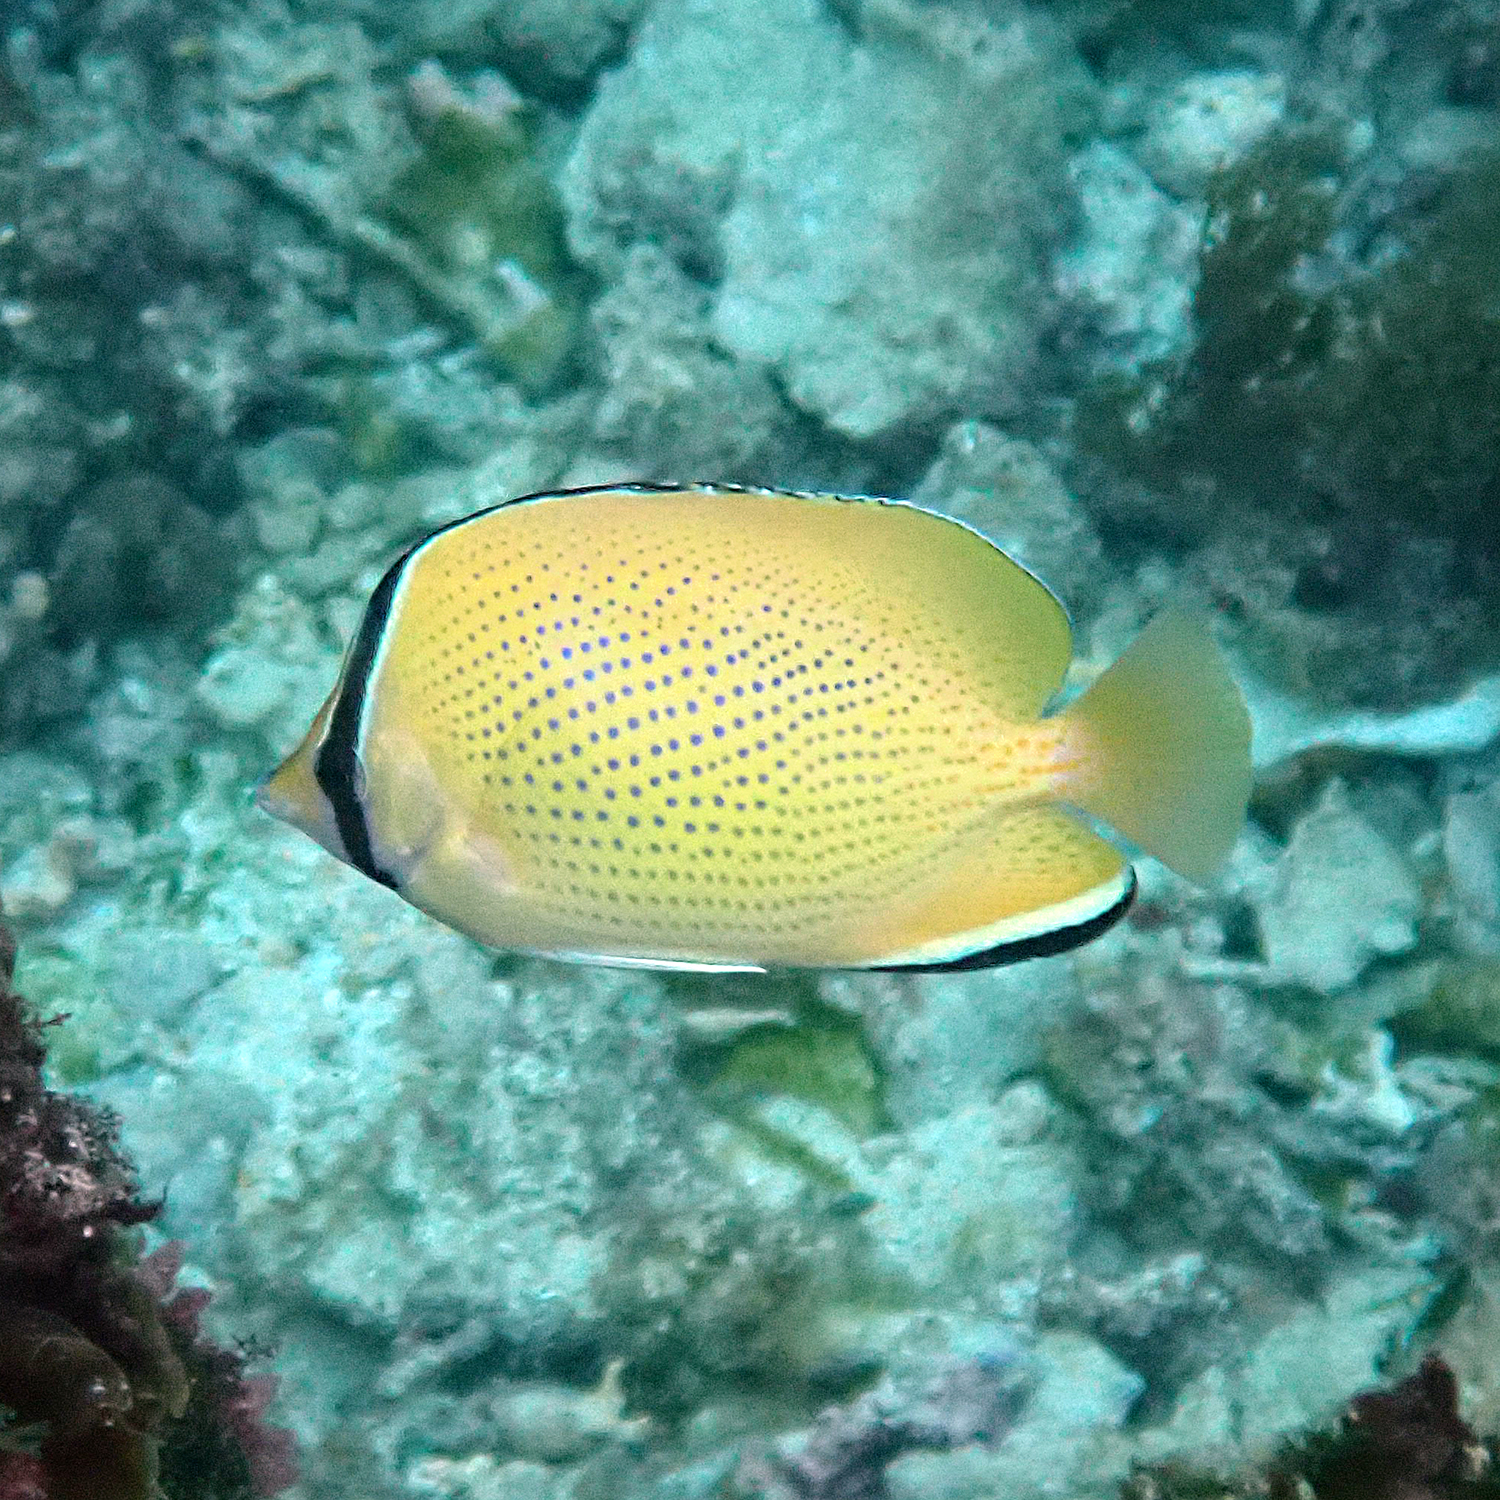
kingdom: Animalia
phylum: Chordata
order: Perciformes
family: Chaetodontidae
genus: Chaetodon
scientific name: Chaetodon citrinellus
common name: Speckled butterflyfish
